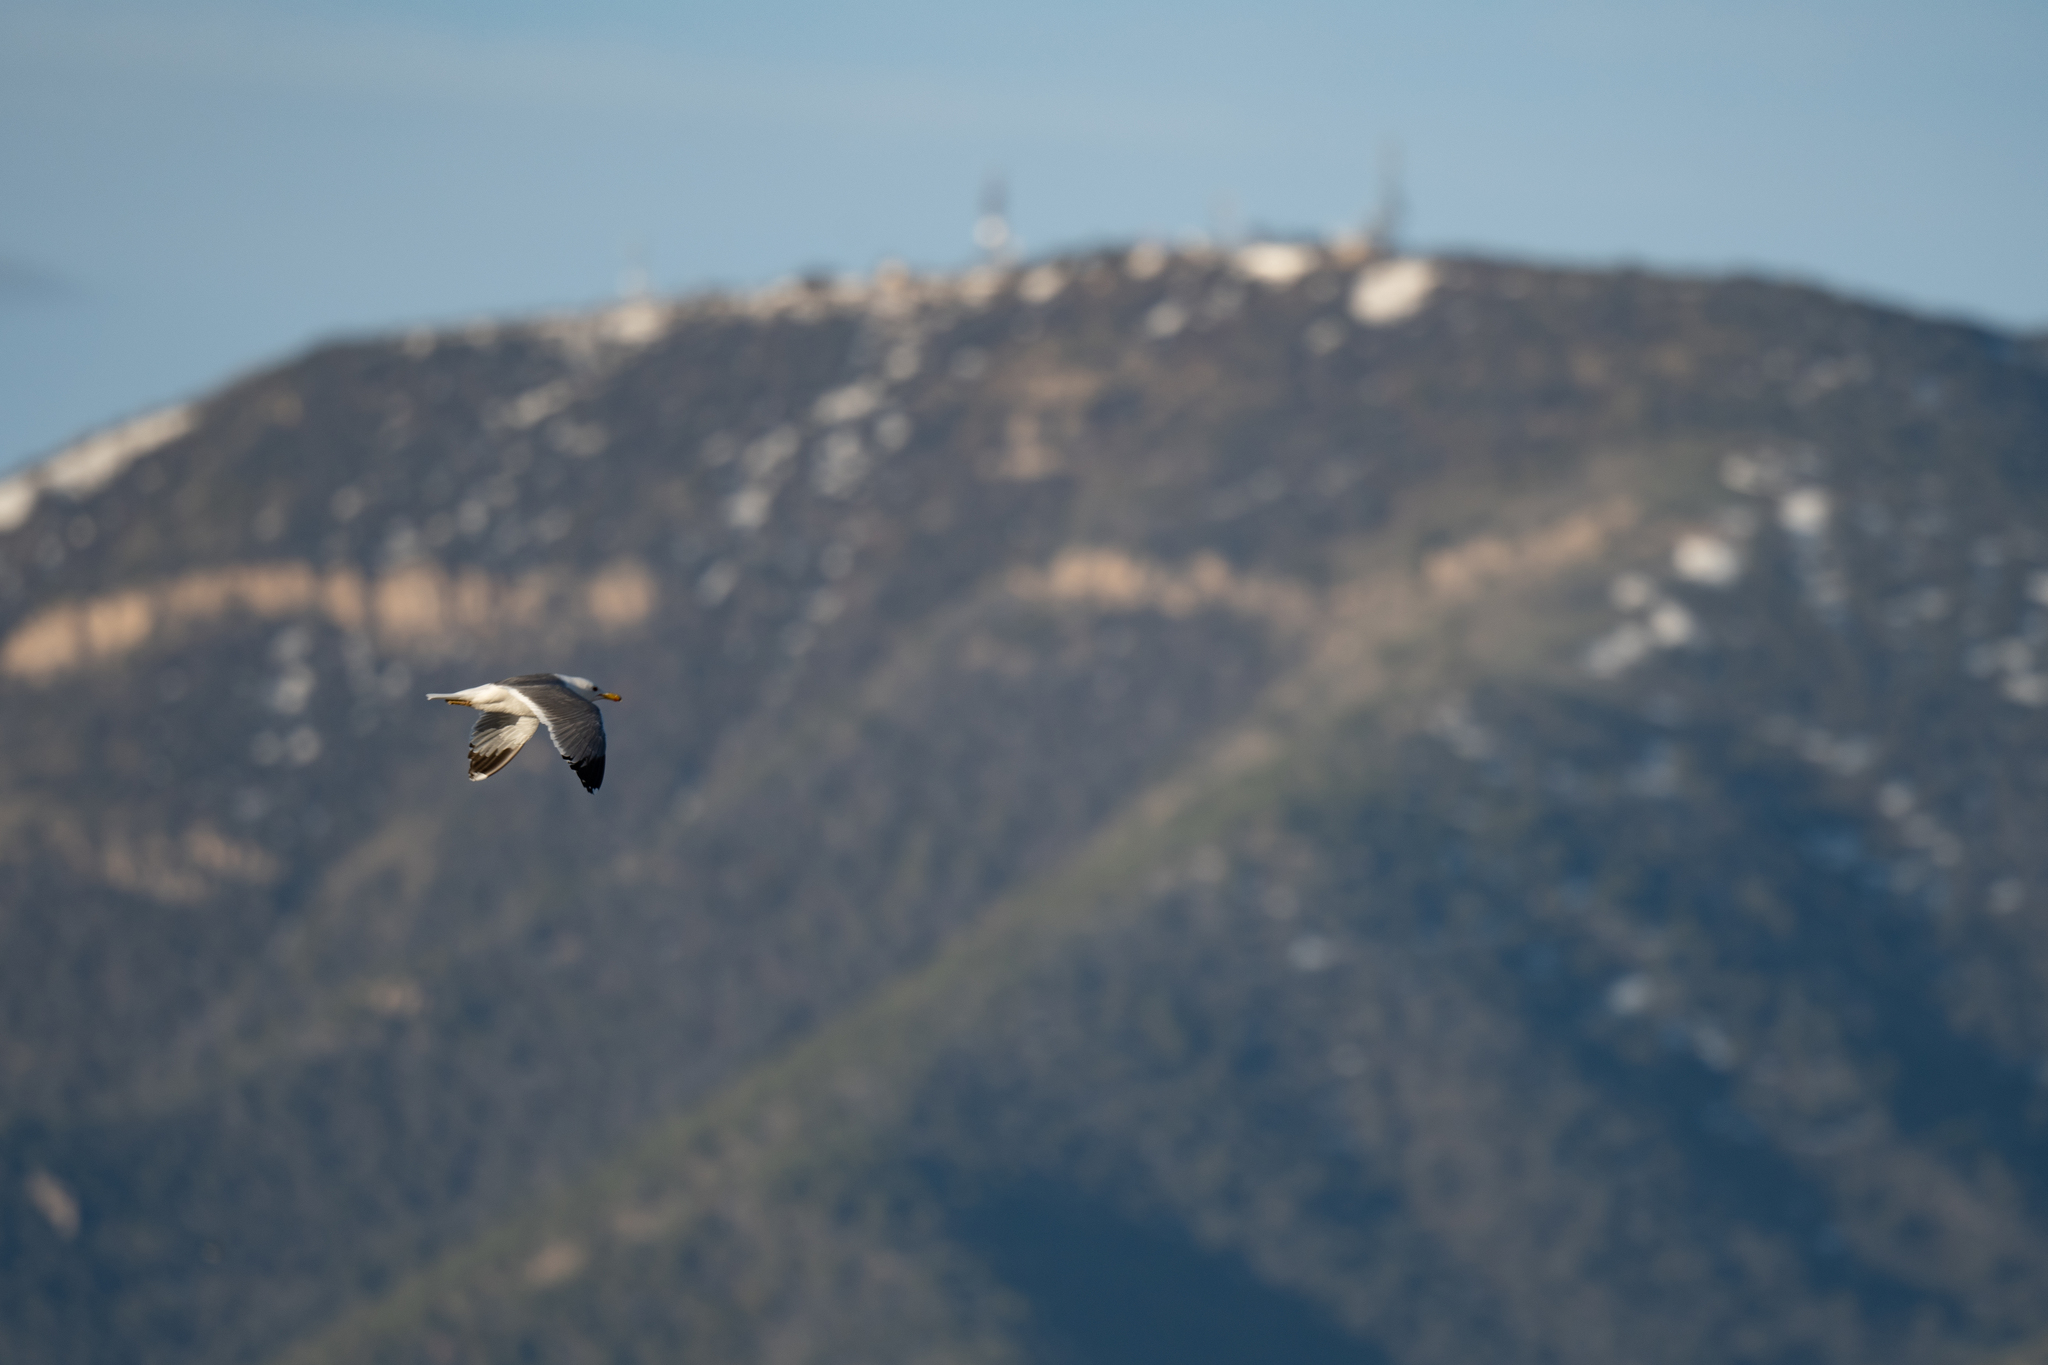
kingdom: Animalia
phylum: Chordata
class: Aves
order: Charadriiformes
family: Laridae
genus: Larus
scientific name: Larus californicus
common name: California gull
